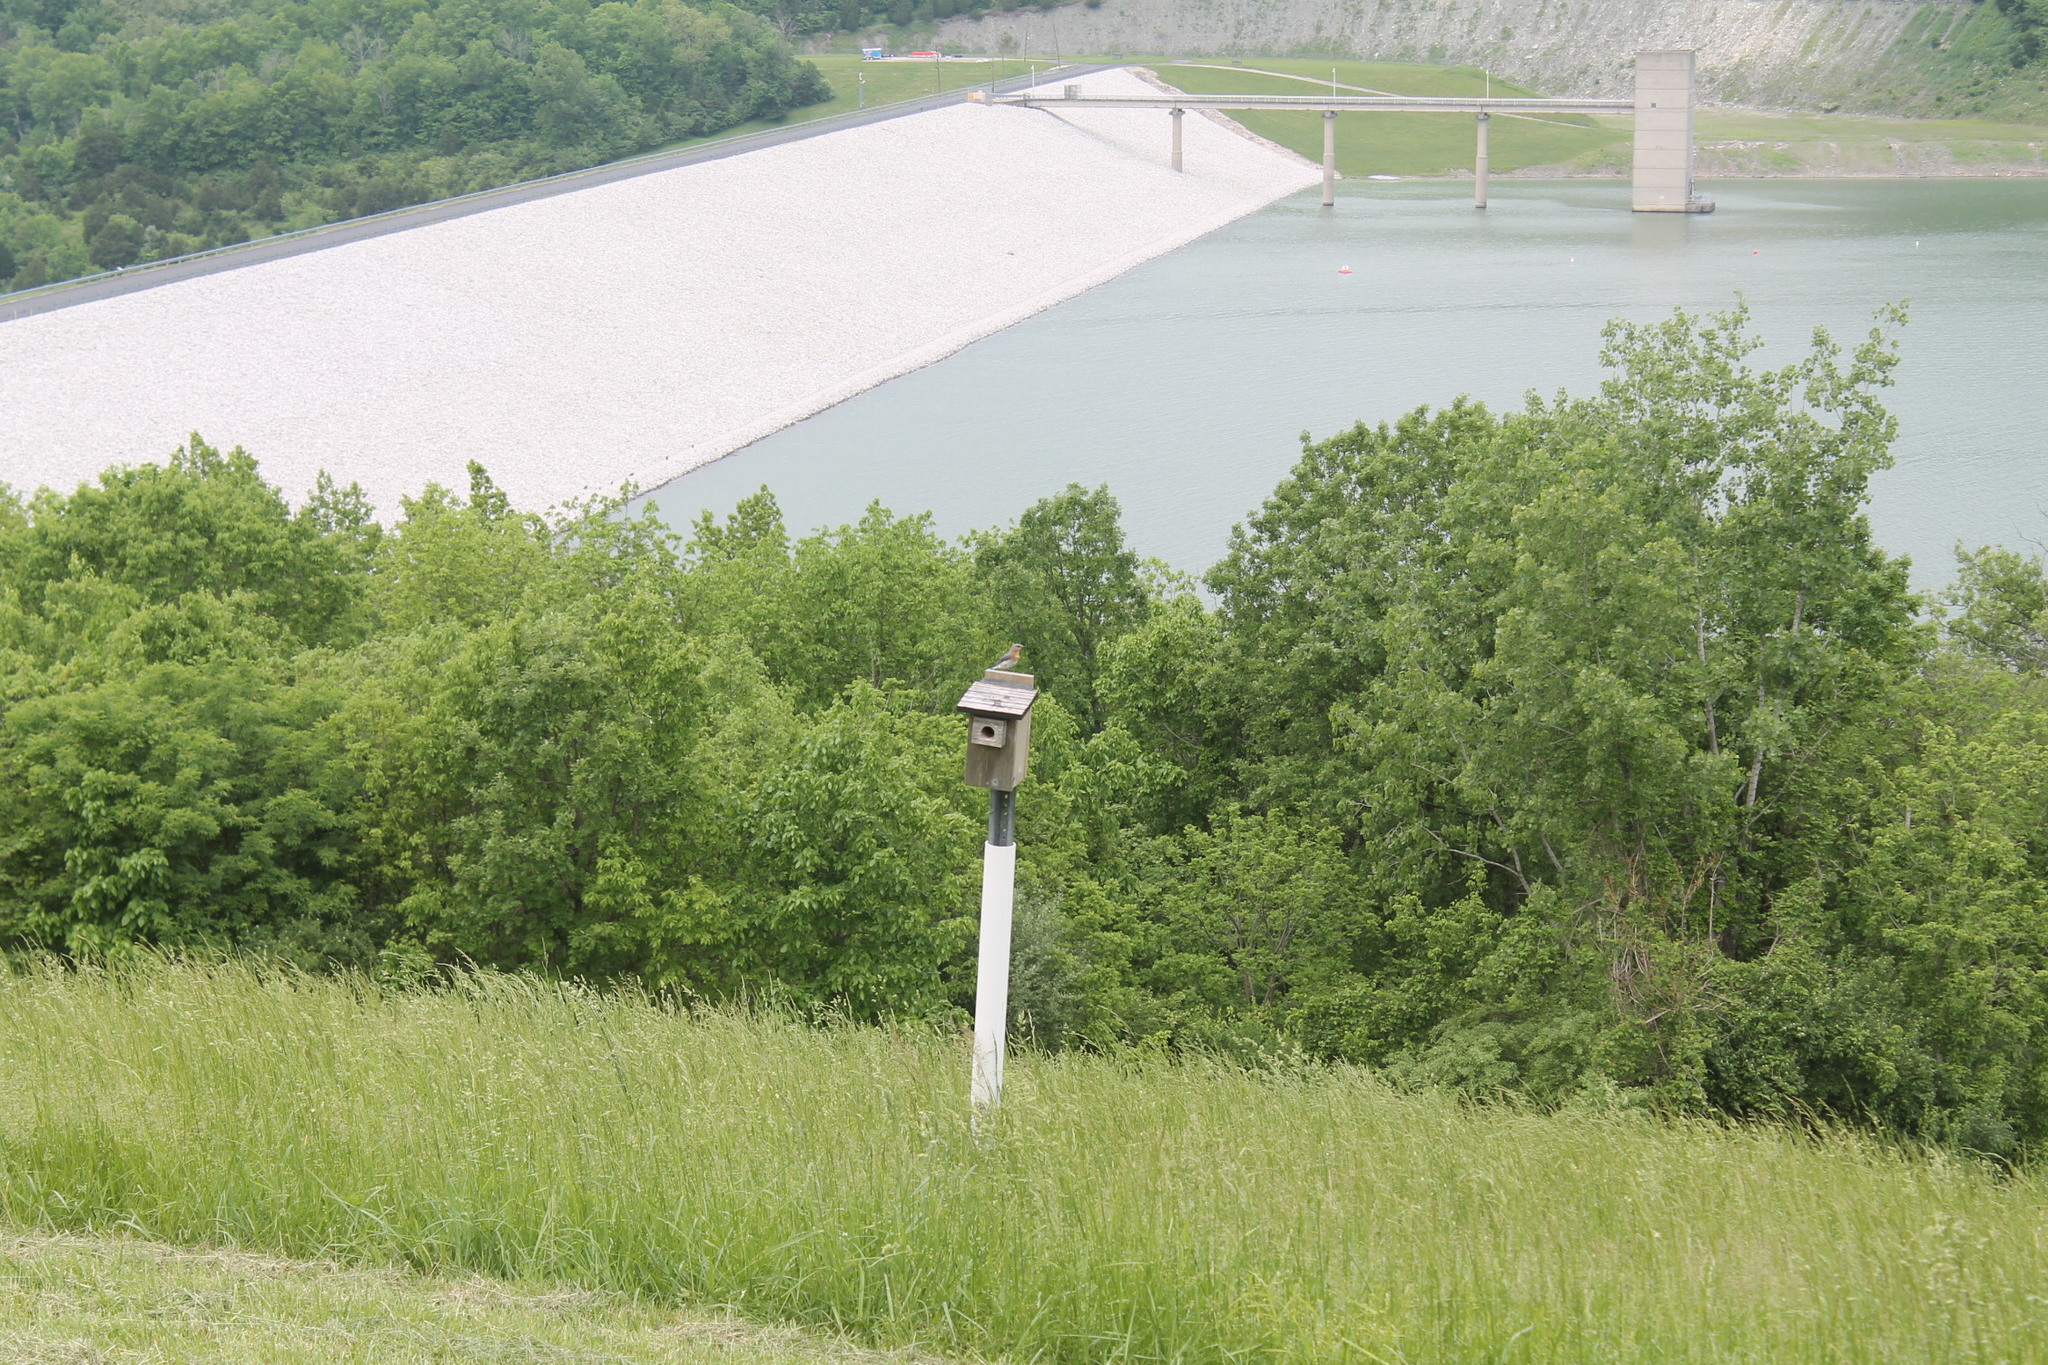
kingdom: Animalia
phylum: Chordata
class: Aves
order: Passeriformes
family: Turdidae
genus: Sialia
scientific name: Sialia sialis
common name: Eastern bluebird
